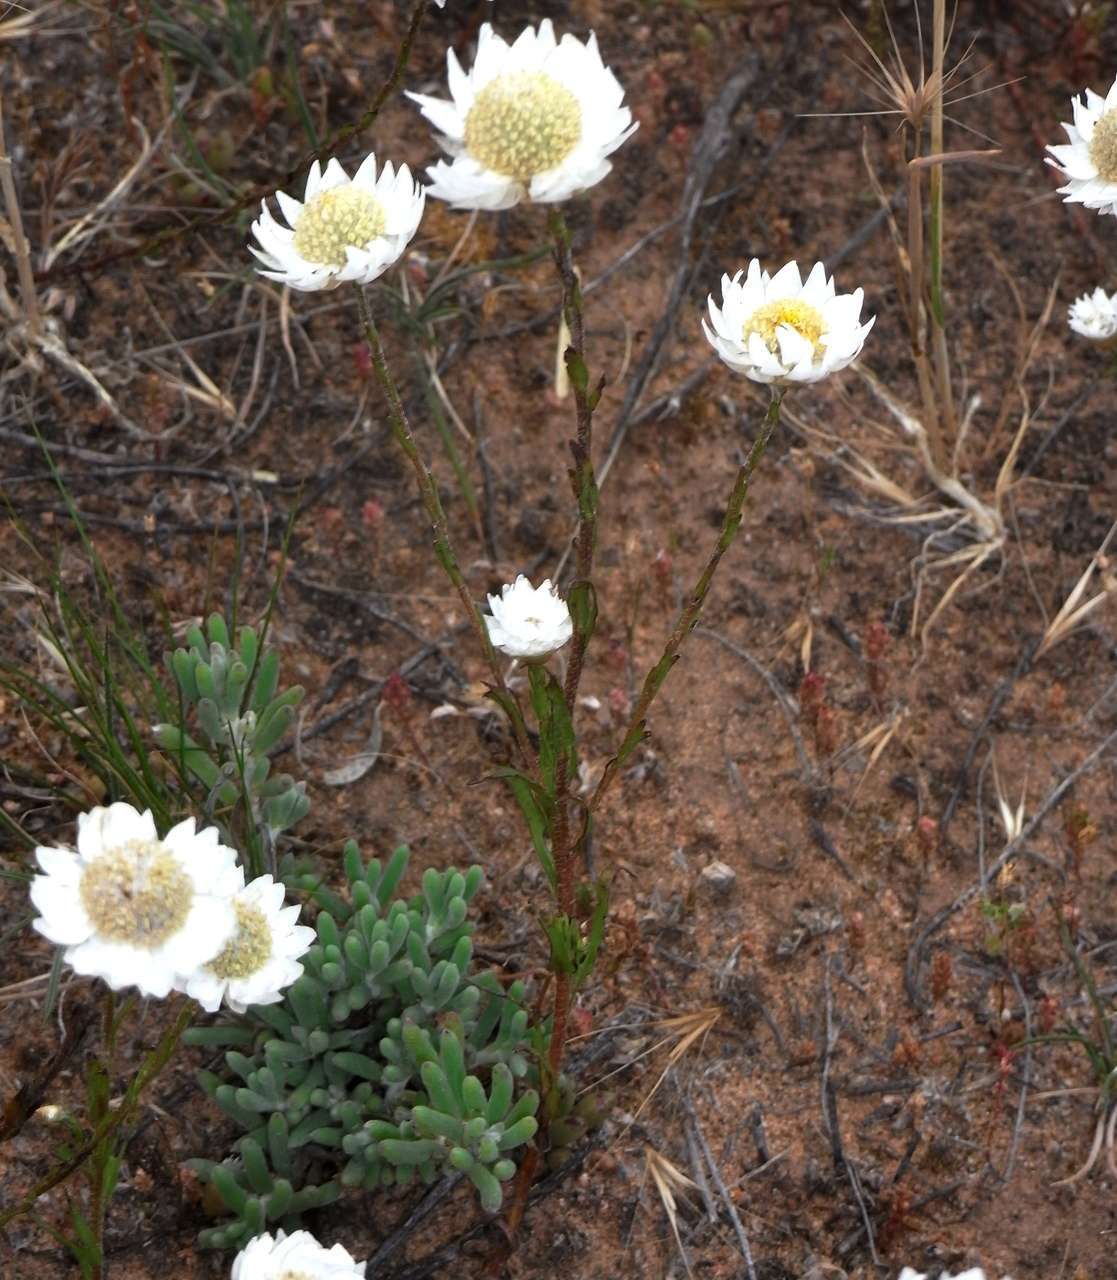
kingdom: Plantae
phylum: Tracheophyta
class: Magnoliopsida
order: Asterales
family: Asteraceae
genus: Rhodanthe
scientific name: Rhodanthe stuartiana
